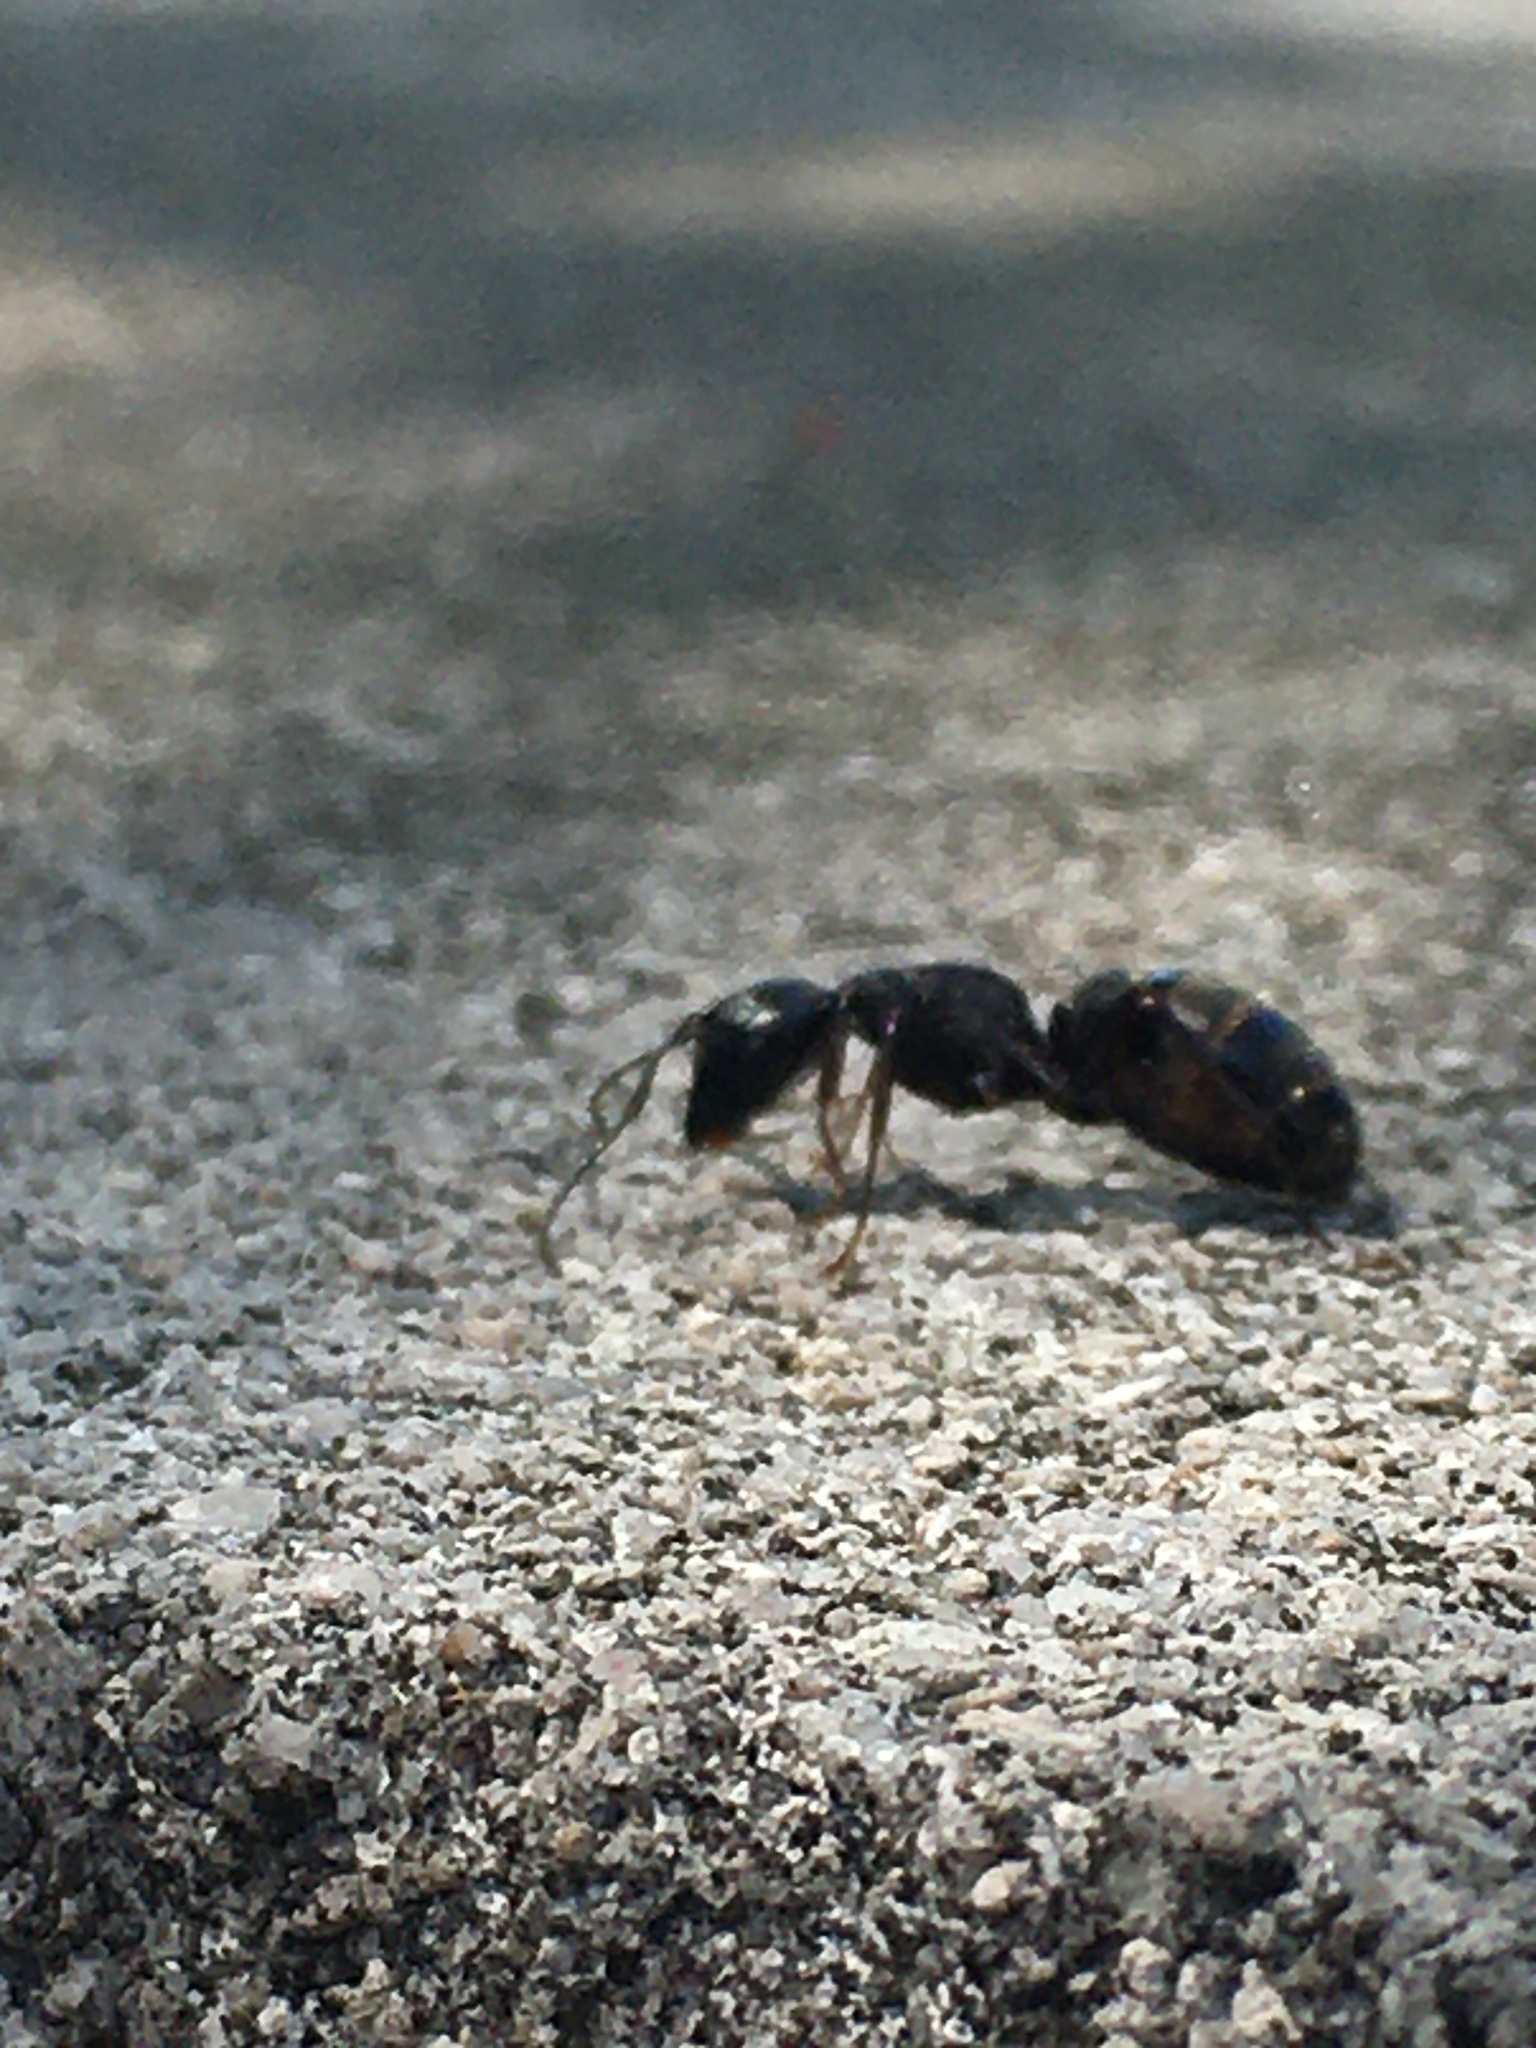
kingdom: Animalia
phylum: Arthropoda
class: Insecta
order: Hymenoptera
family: Formicidae
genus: Camponotus
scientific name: Camponotus pennsylvanicus
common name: Black carpenter ant
